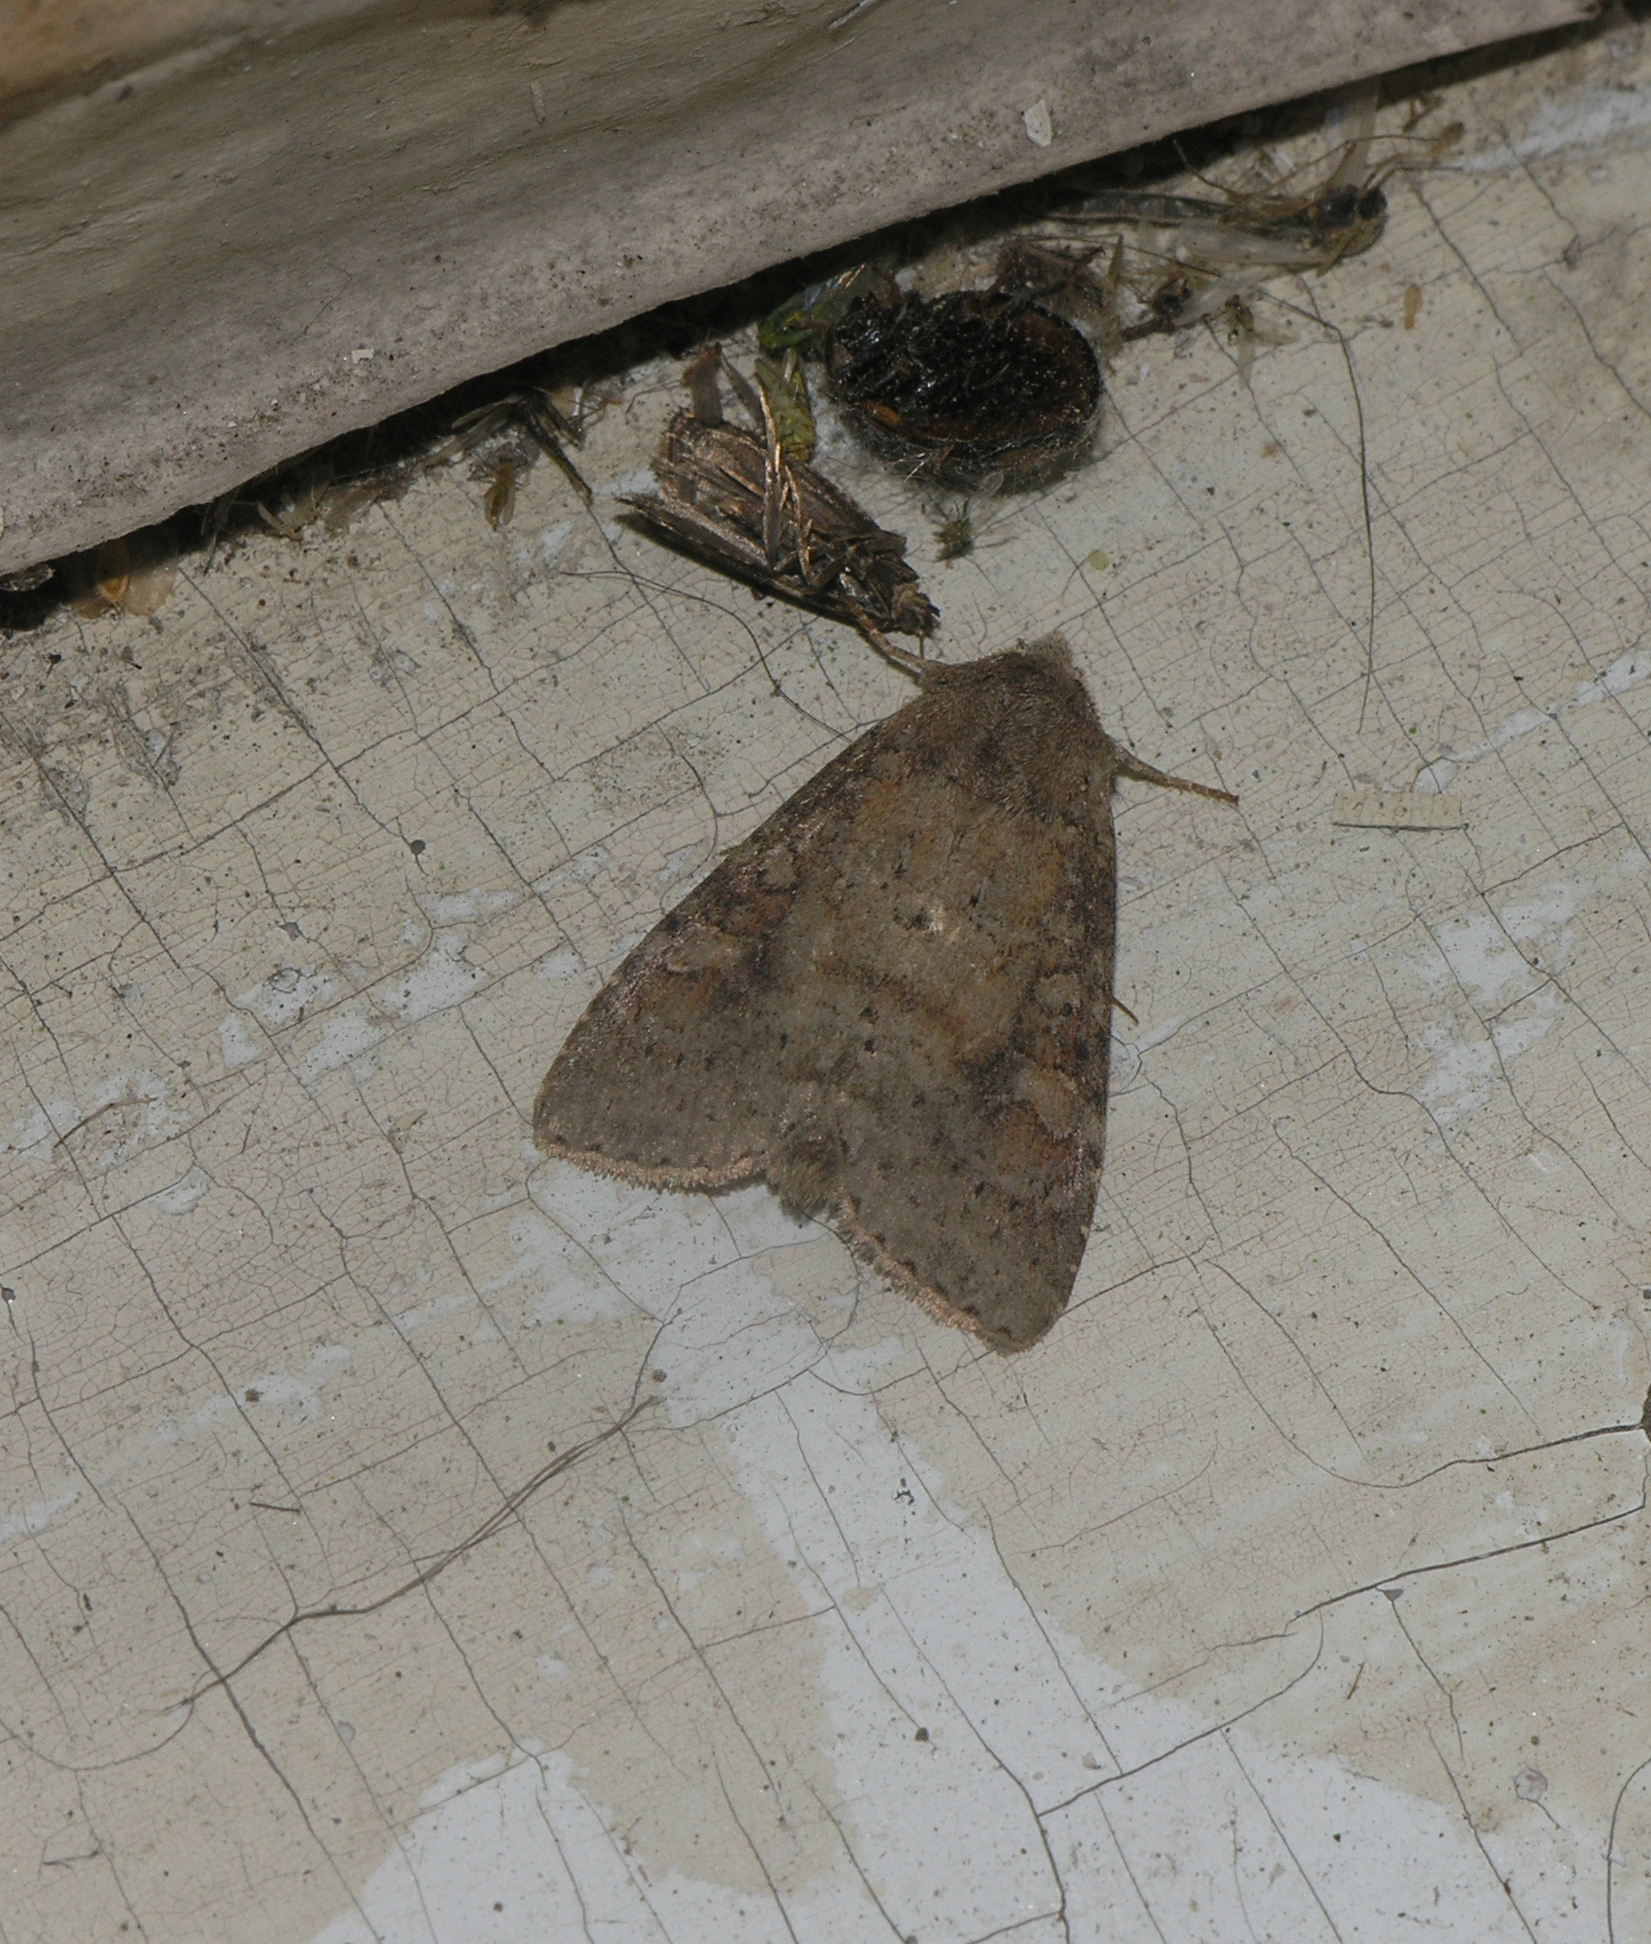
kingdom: Animalia
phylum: Arthropoda
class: Insecta
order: Lepidoptera
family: Noctuidae
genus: Parastichtis
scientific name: Parastichtis suspecta
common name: Suspected
